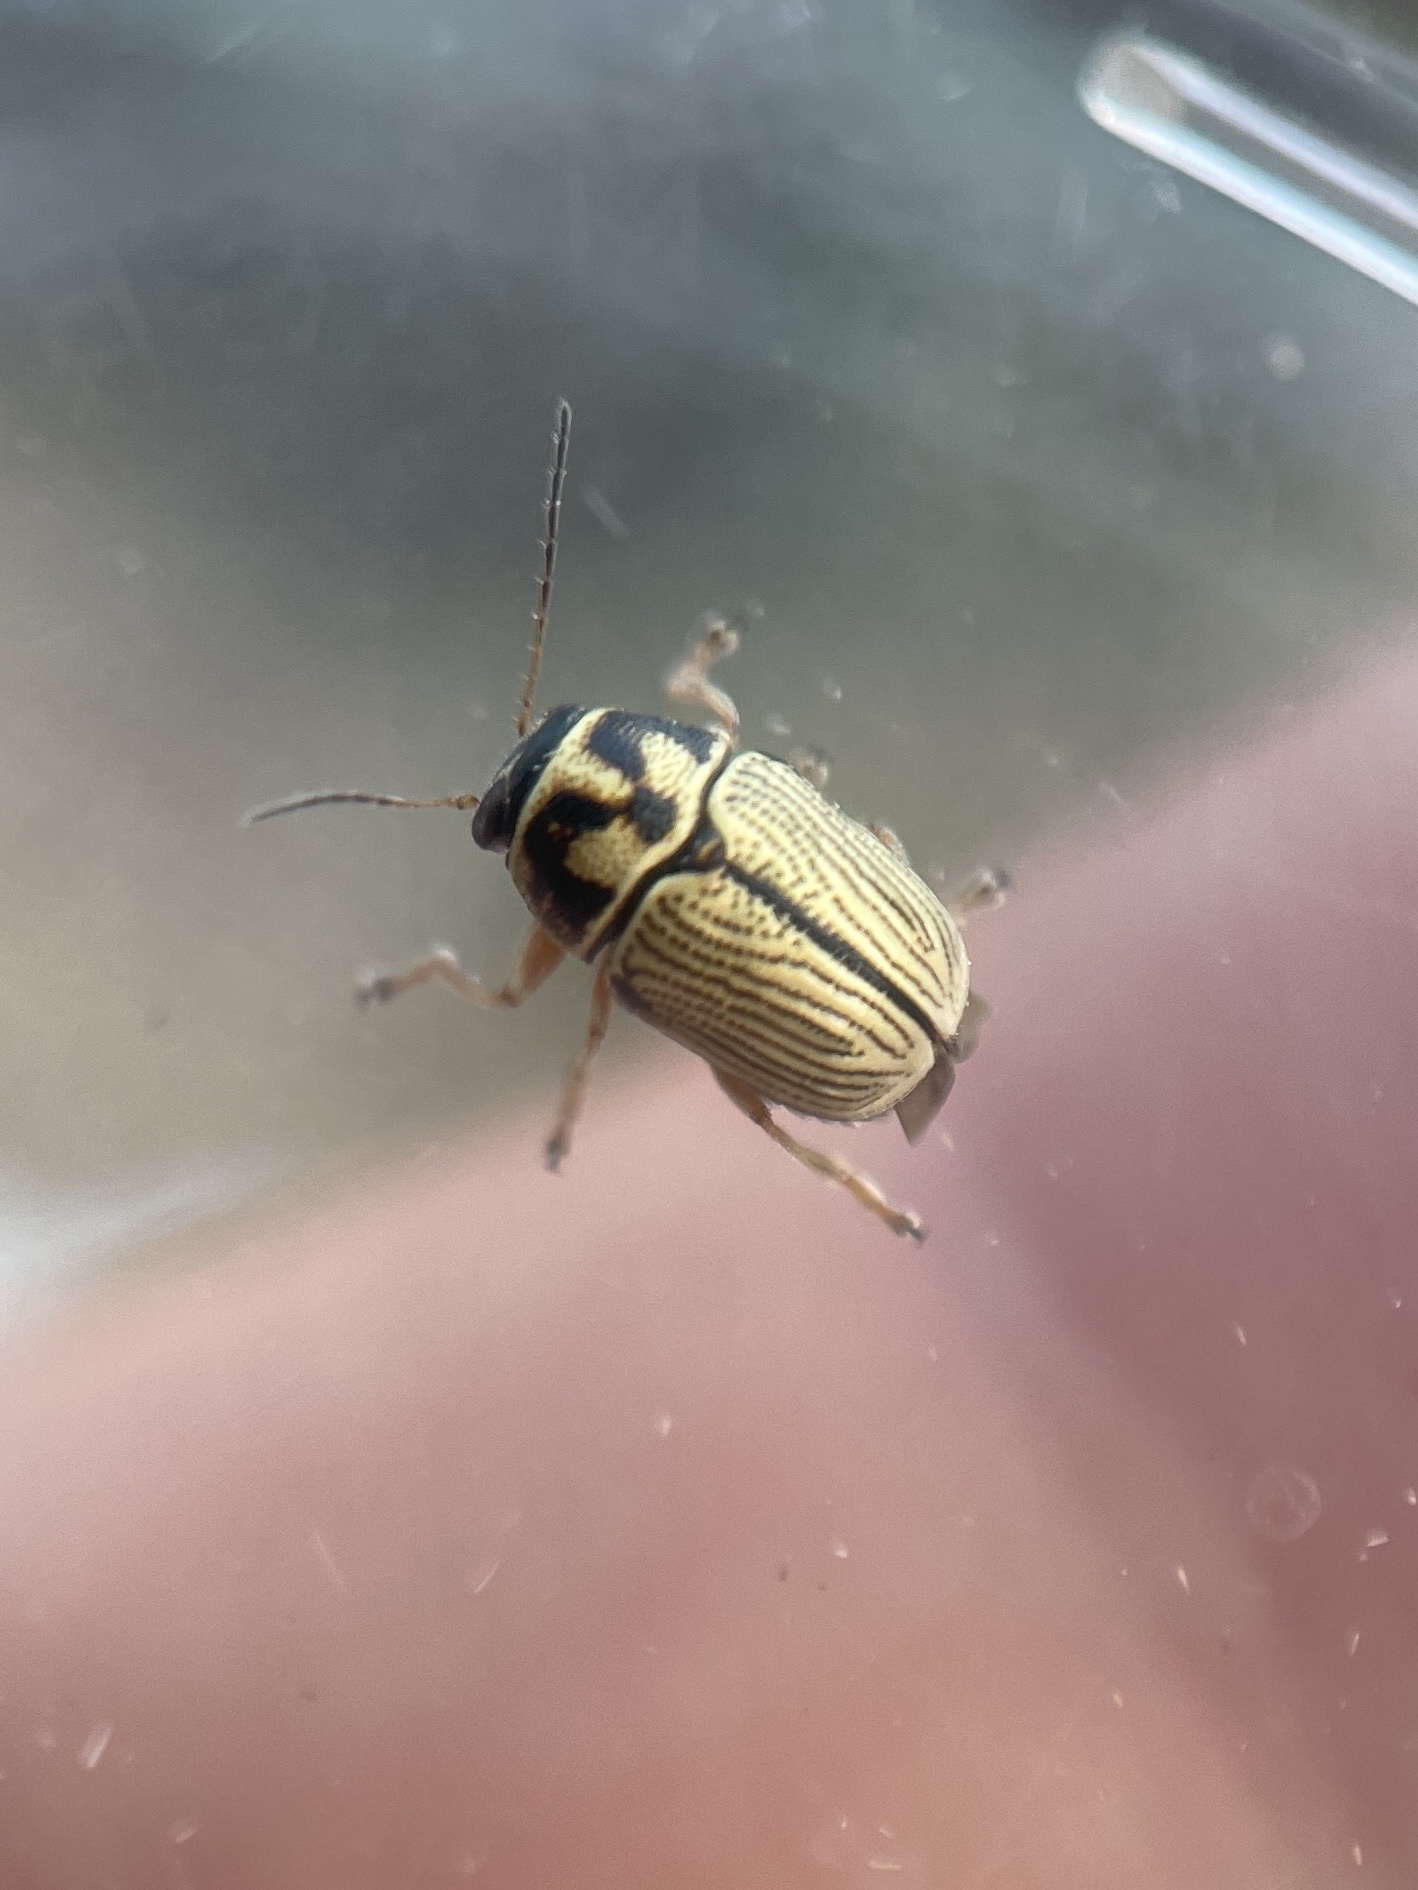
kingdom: Animalia
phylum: Arthropoda
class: Insecta
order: Coleoptera
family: Chrysomelidae
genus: Pachybrachis
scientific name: Pachybrachis othonus
